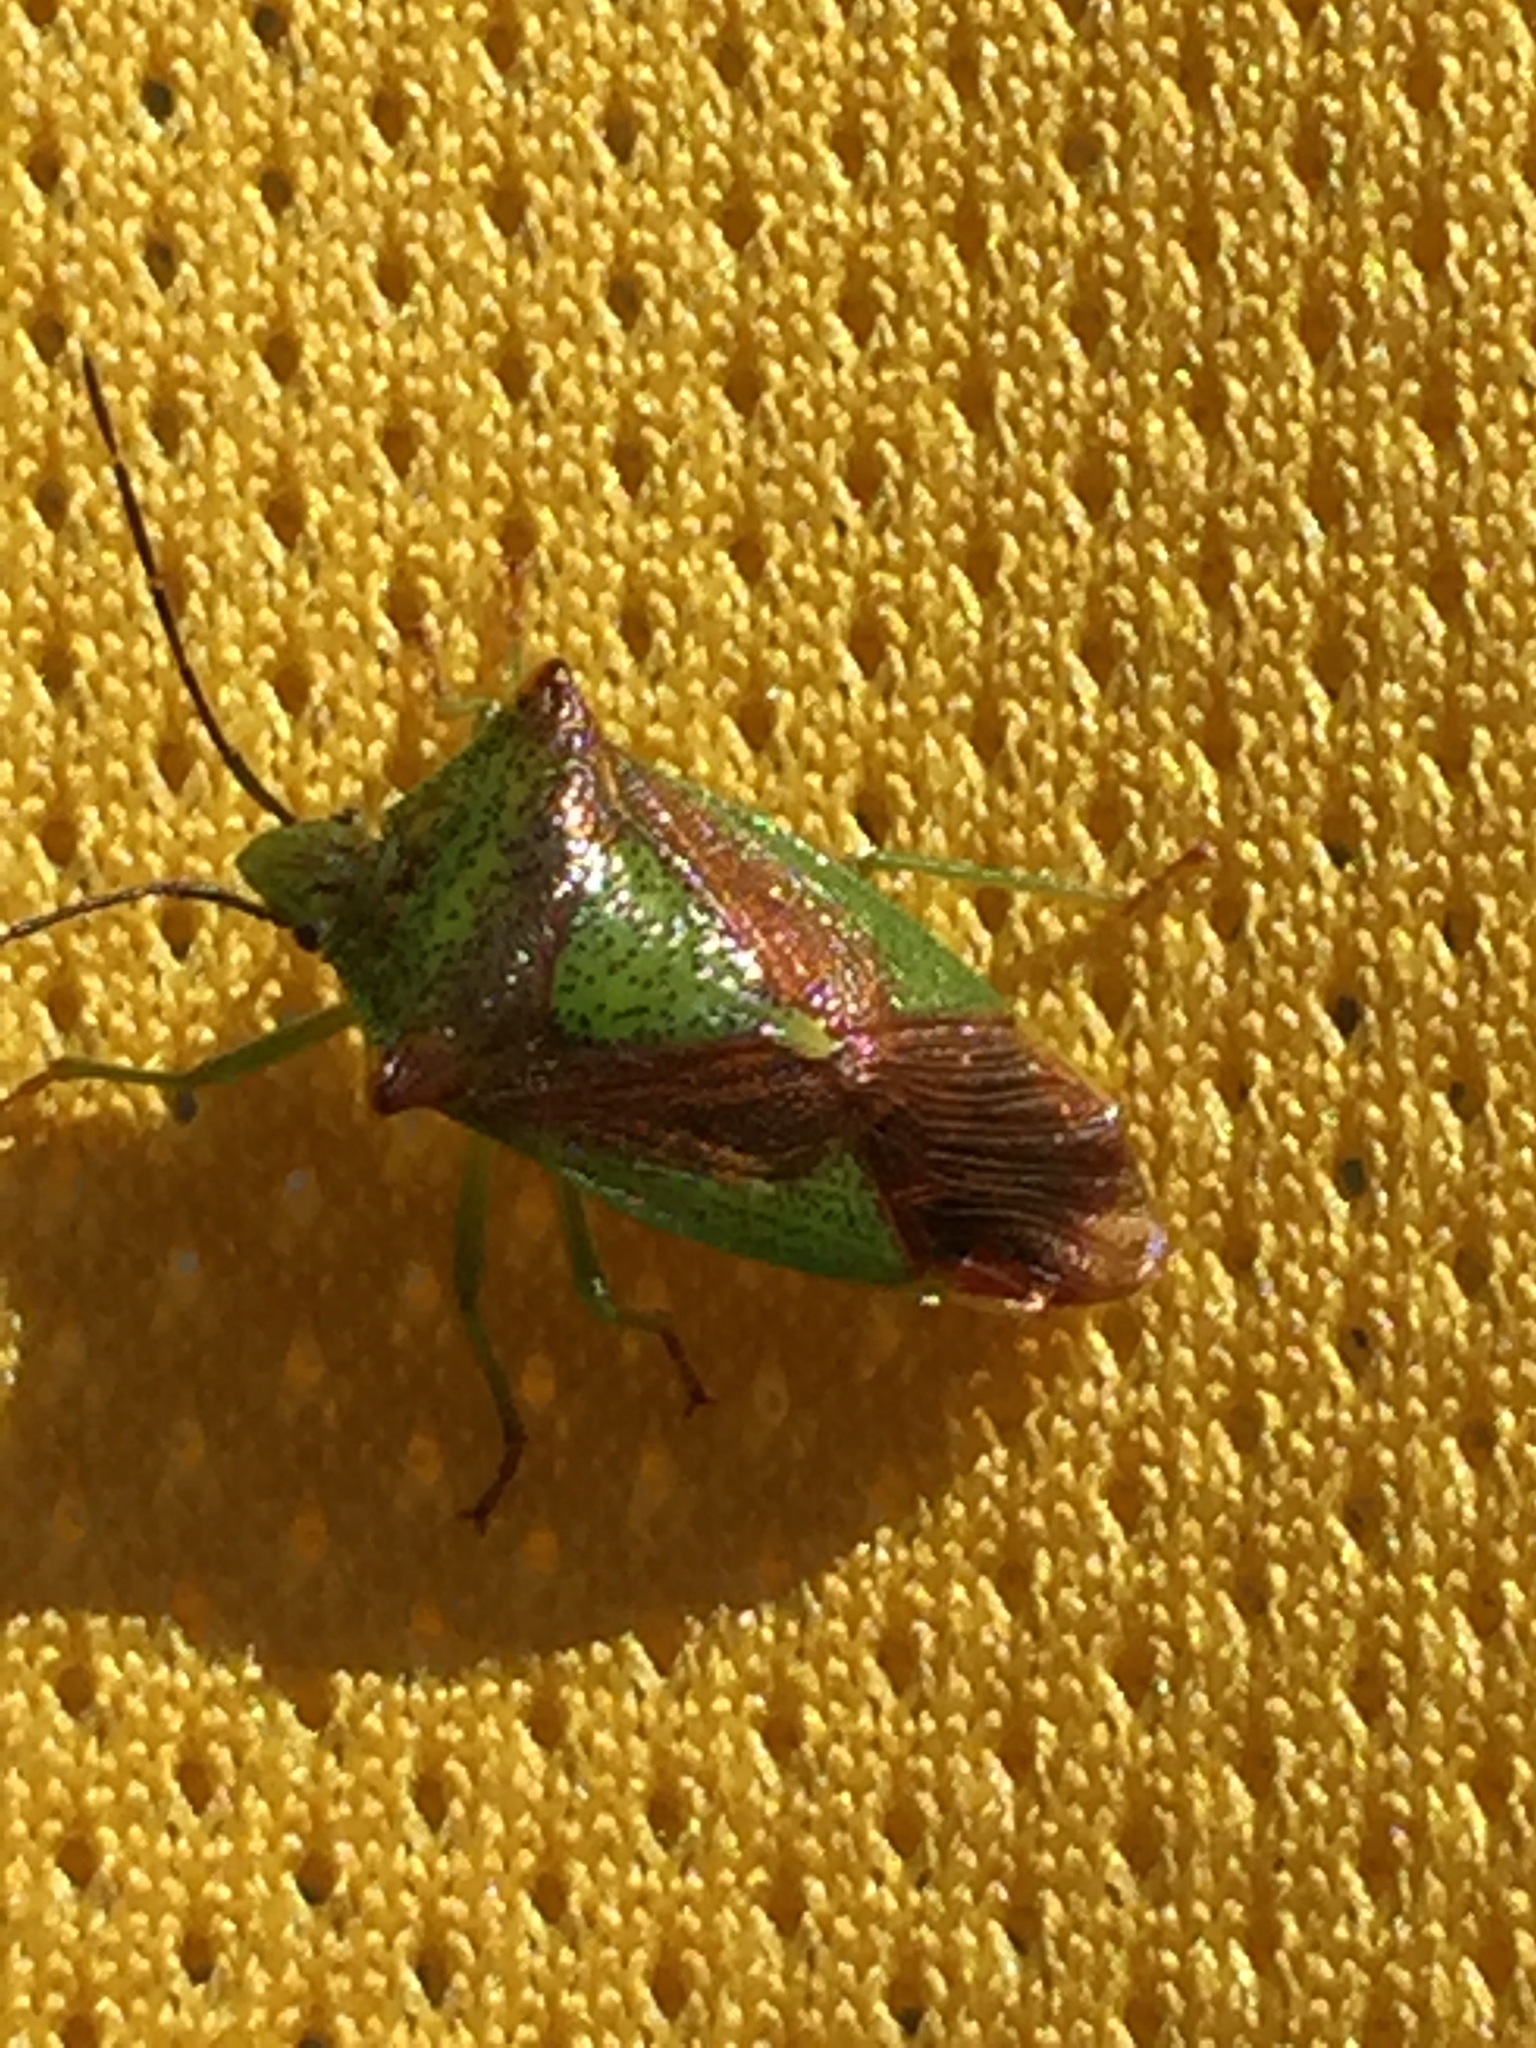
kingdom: Animalia
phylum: Arthropoda
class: Insecta
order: Hemiptera
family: Acanthosomatidae
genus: Acanthosoma
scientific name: Acanthosoma haemorrhoidale
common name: Hawthorn shieldbug
